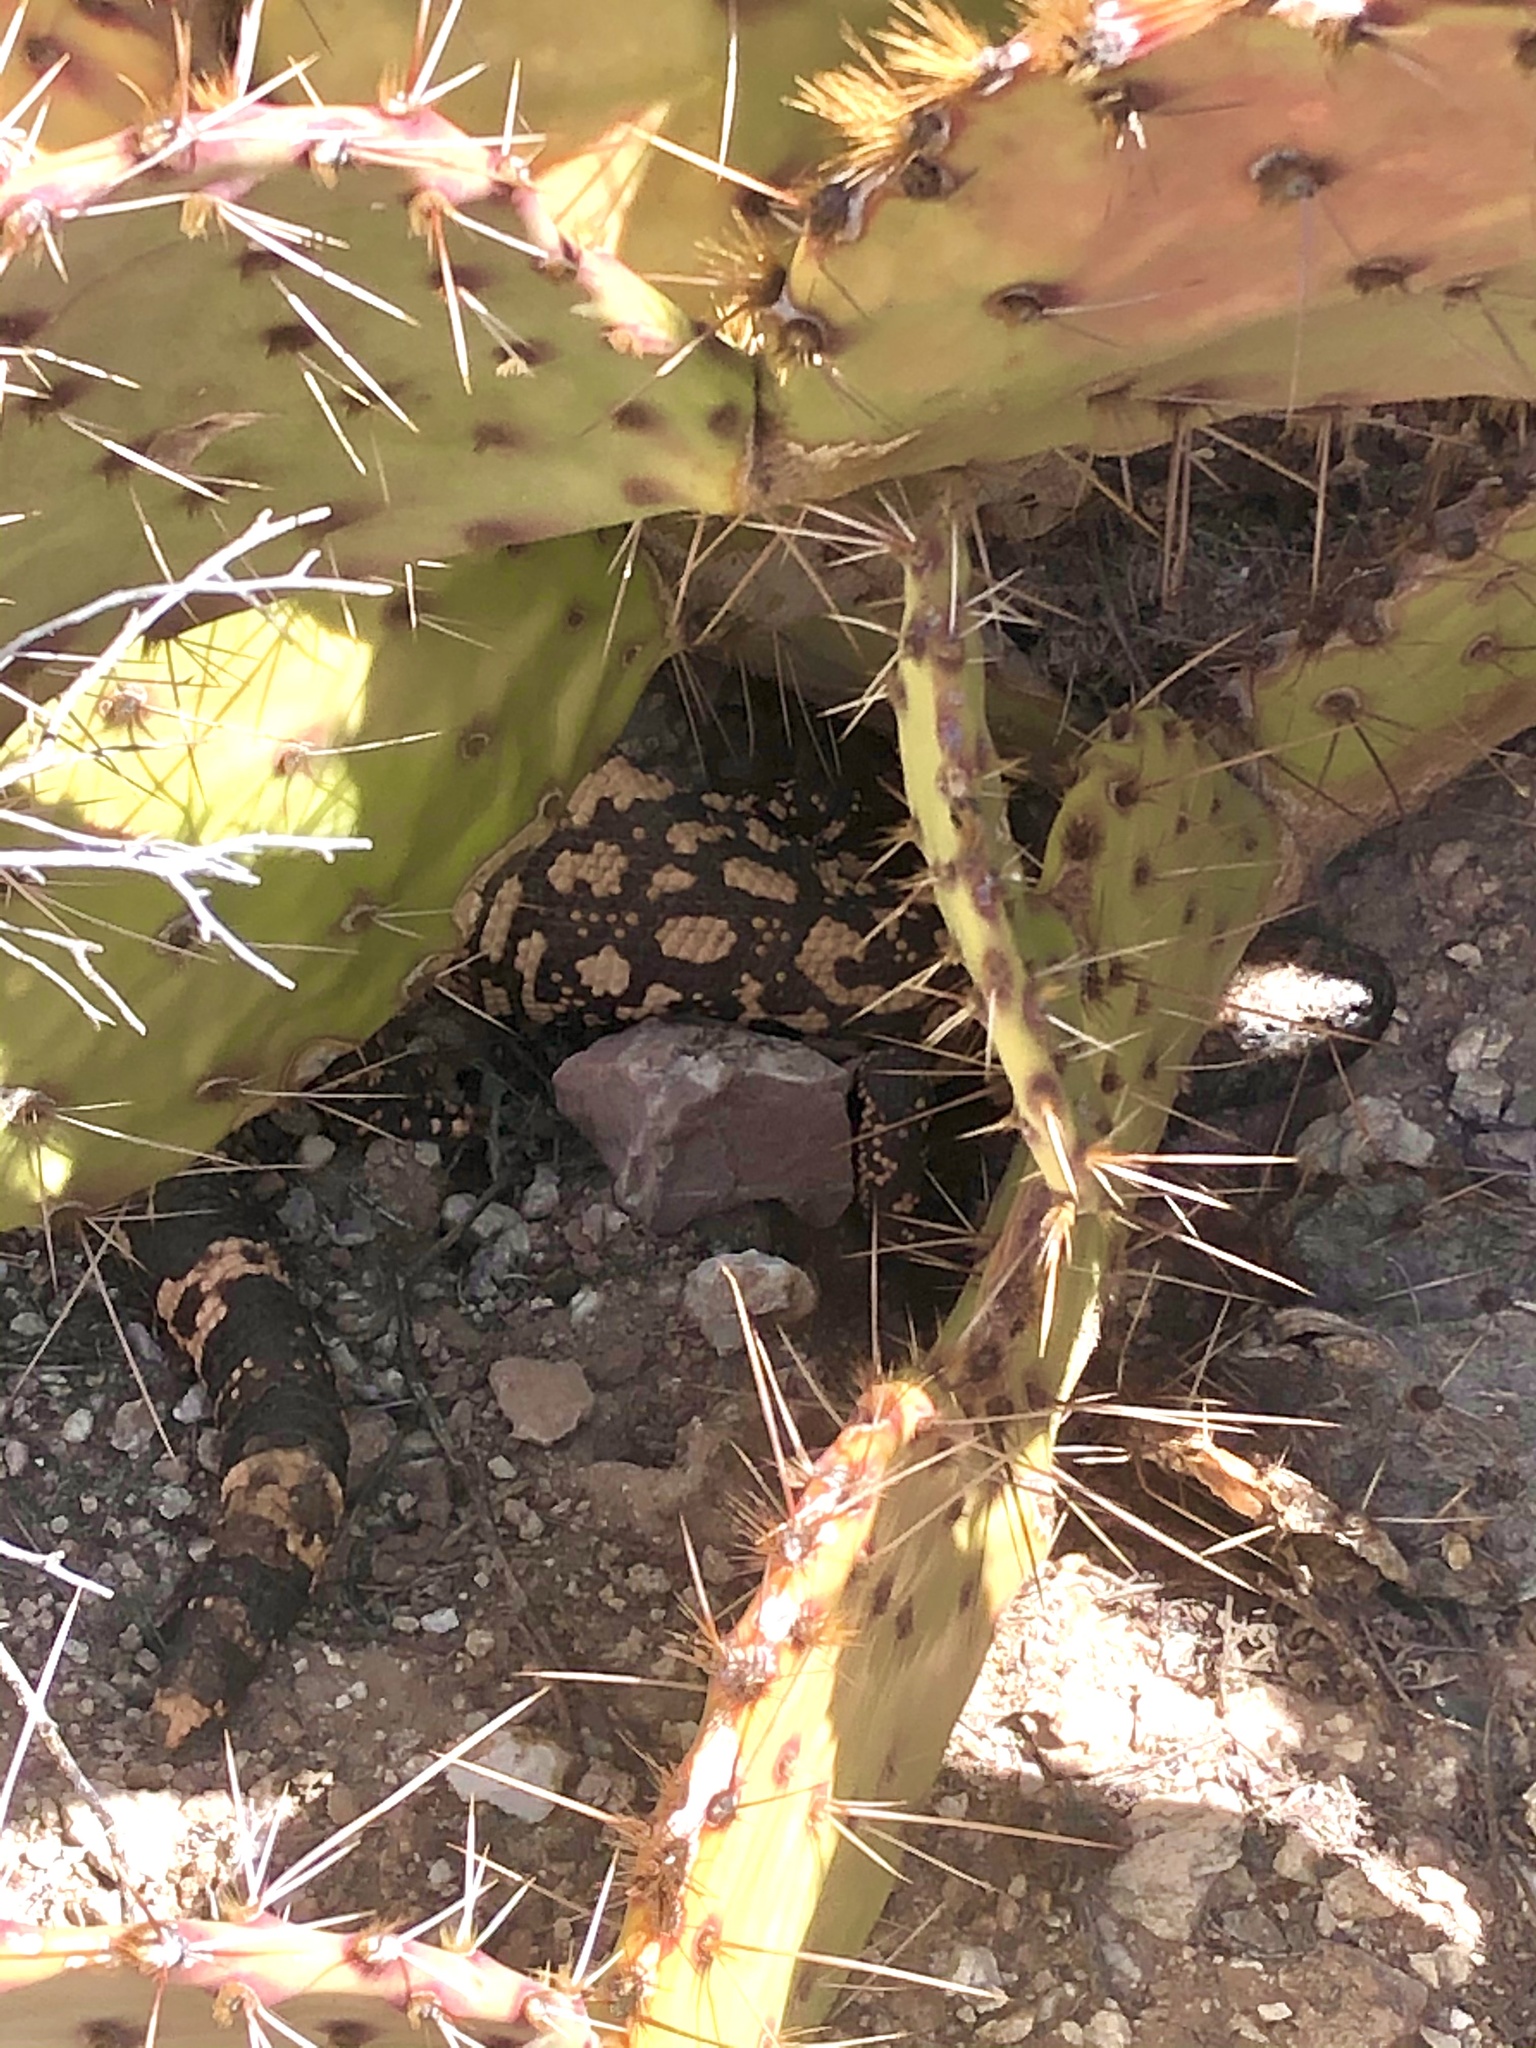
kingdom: Animalia
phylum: Chordata
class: Squamata
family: Helodermatidae
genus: Heloderma
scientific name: Heloderma suspectum
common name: Gila monster
